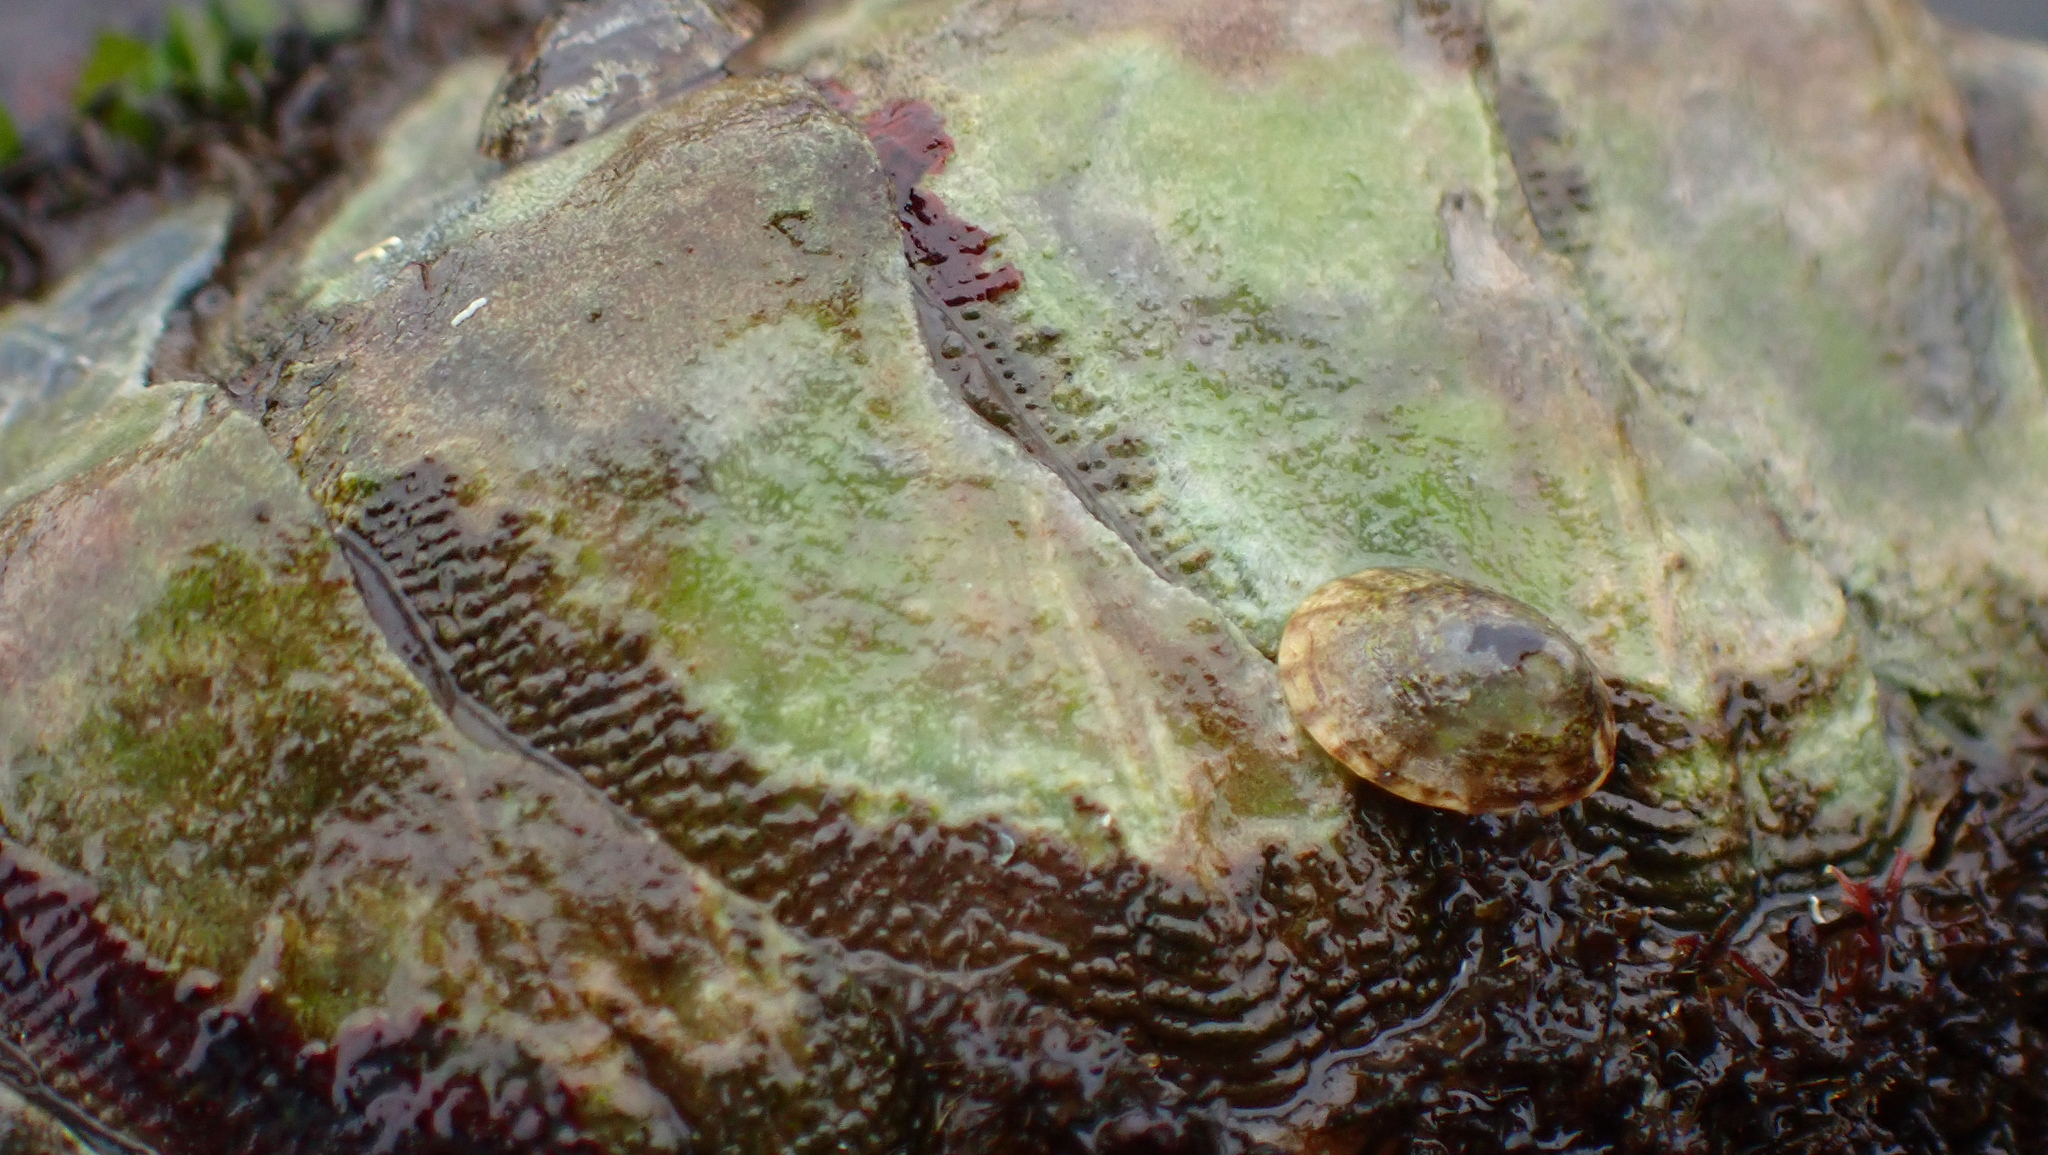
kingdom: Animalia
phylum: Mollusca
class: Polyplacophora
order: Chitonida
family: Mopaliidae
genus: Mopalia
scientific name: Mopalia muscosa
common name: Mossy chiton
